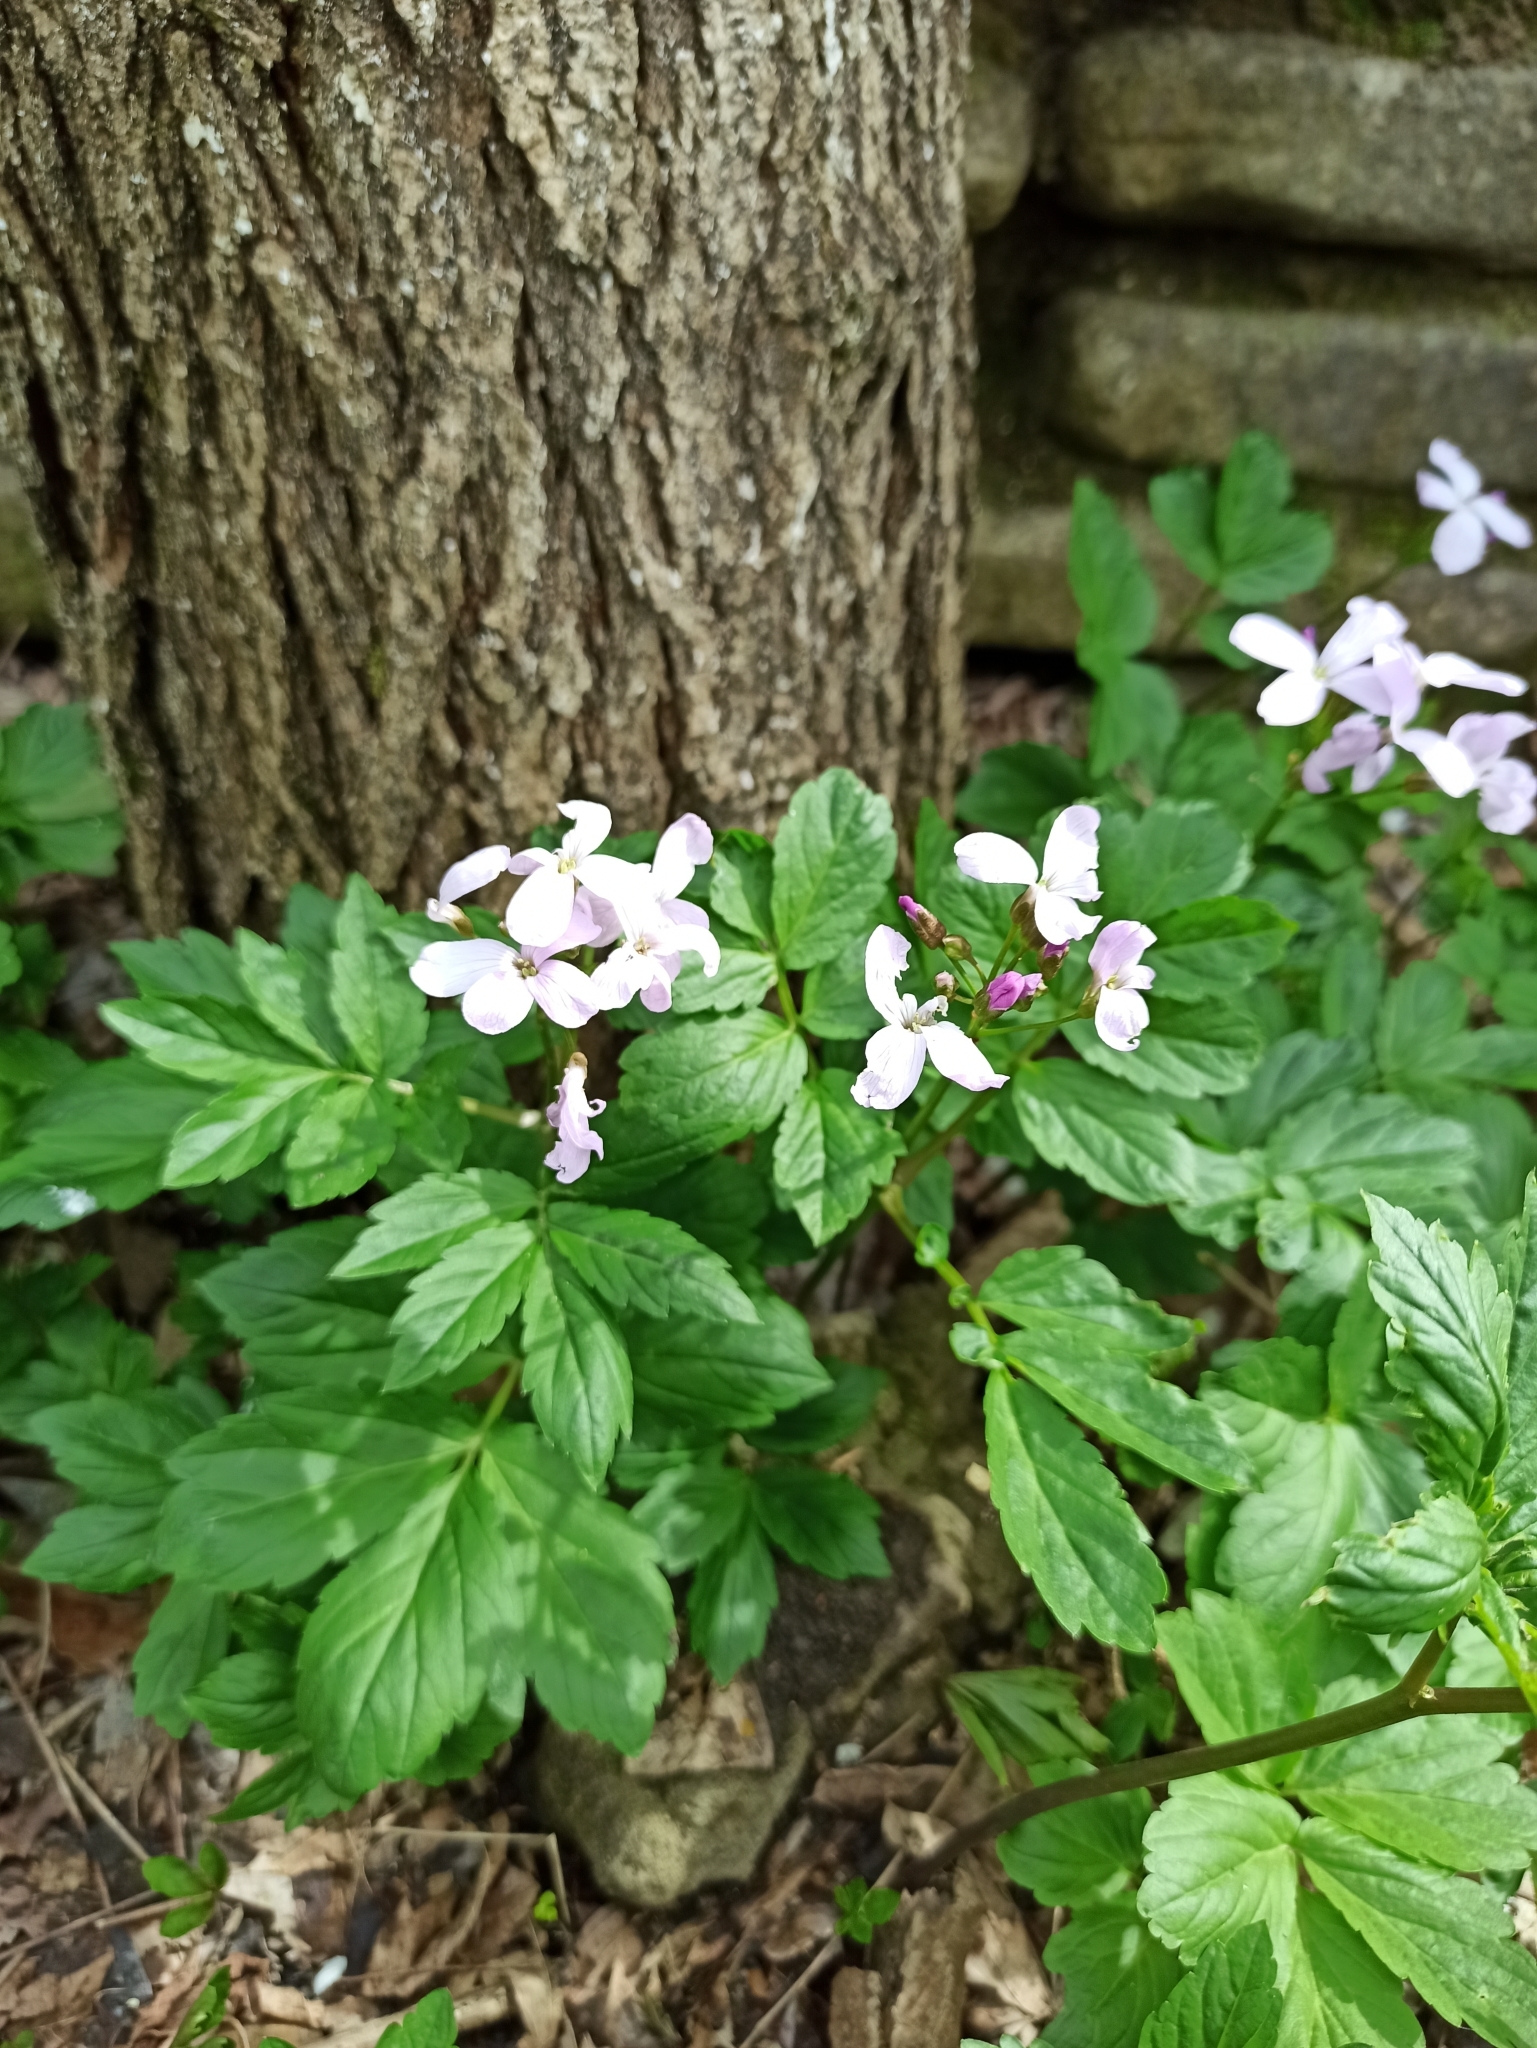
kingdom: Plantae
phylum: Tracheophyta
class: Magnoliopsida
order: Brassicales
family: Brassicaceae
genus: Cardamine
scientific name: Cardamine quinquefolia
